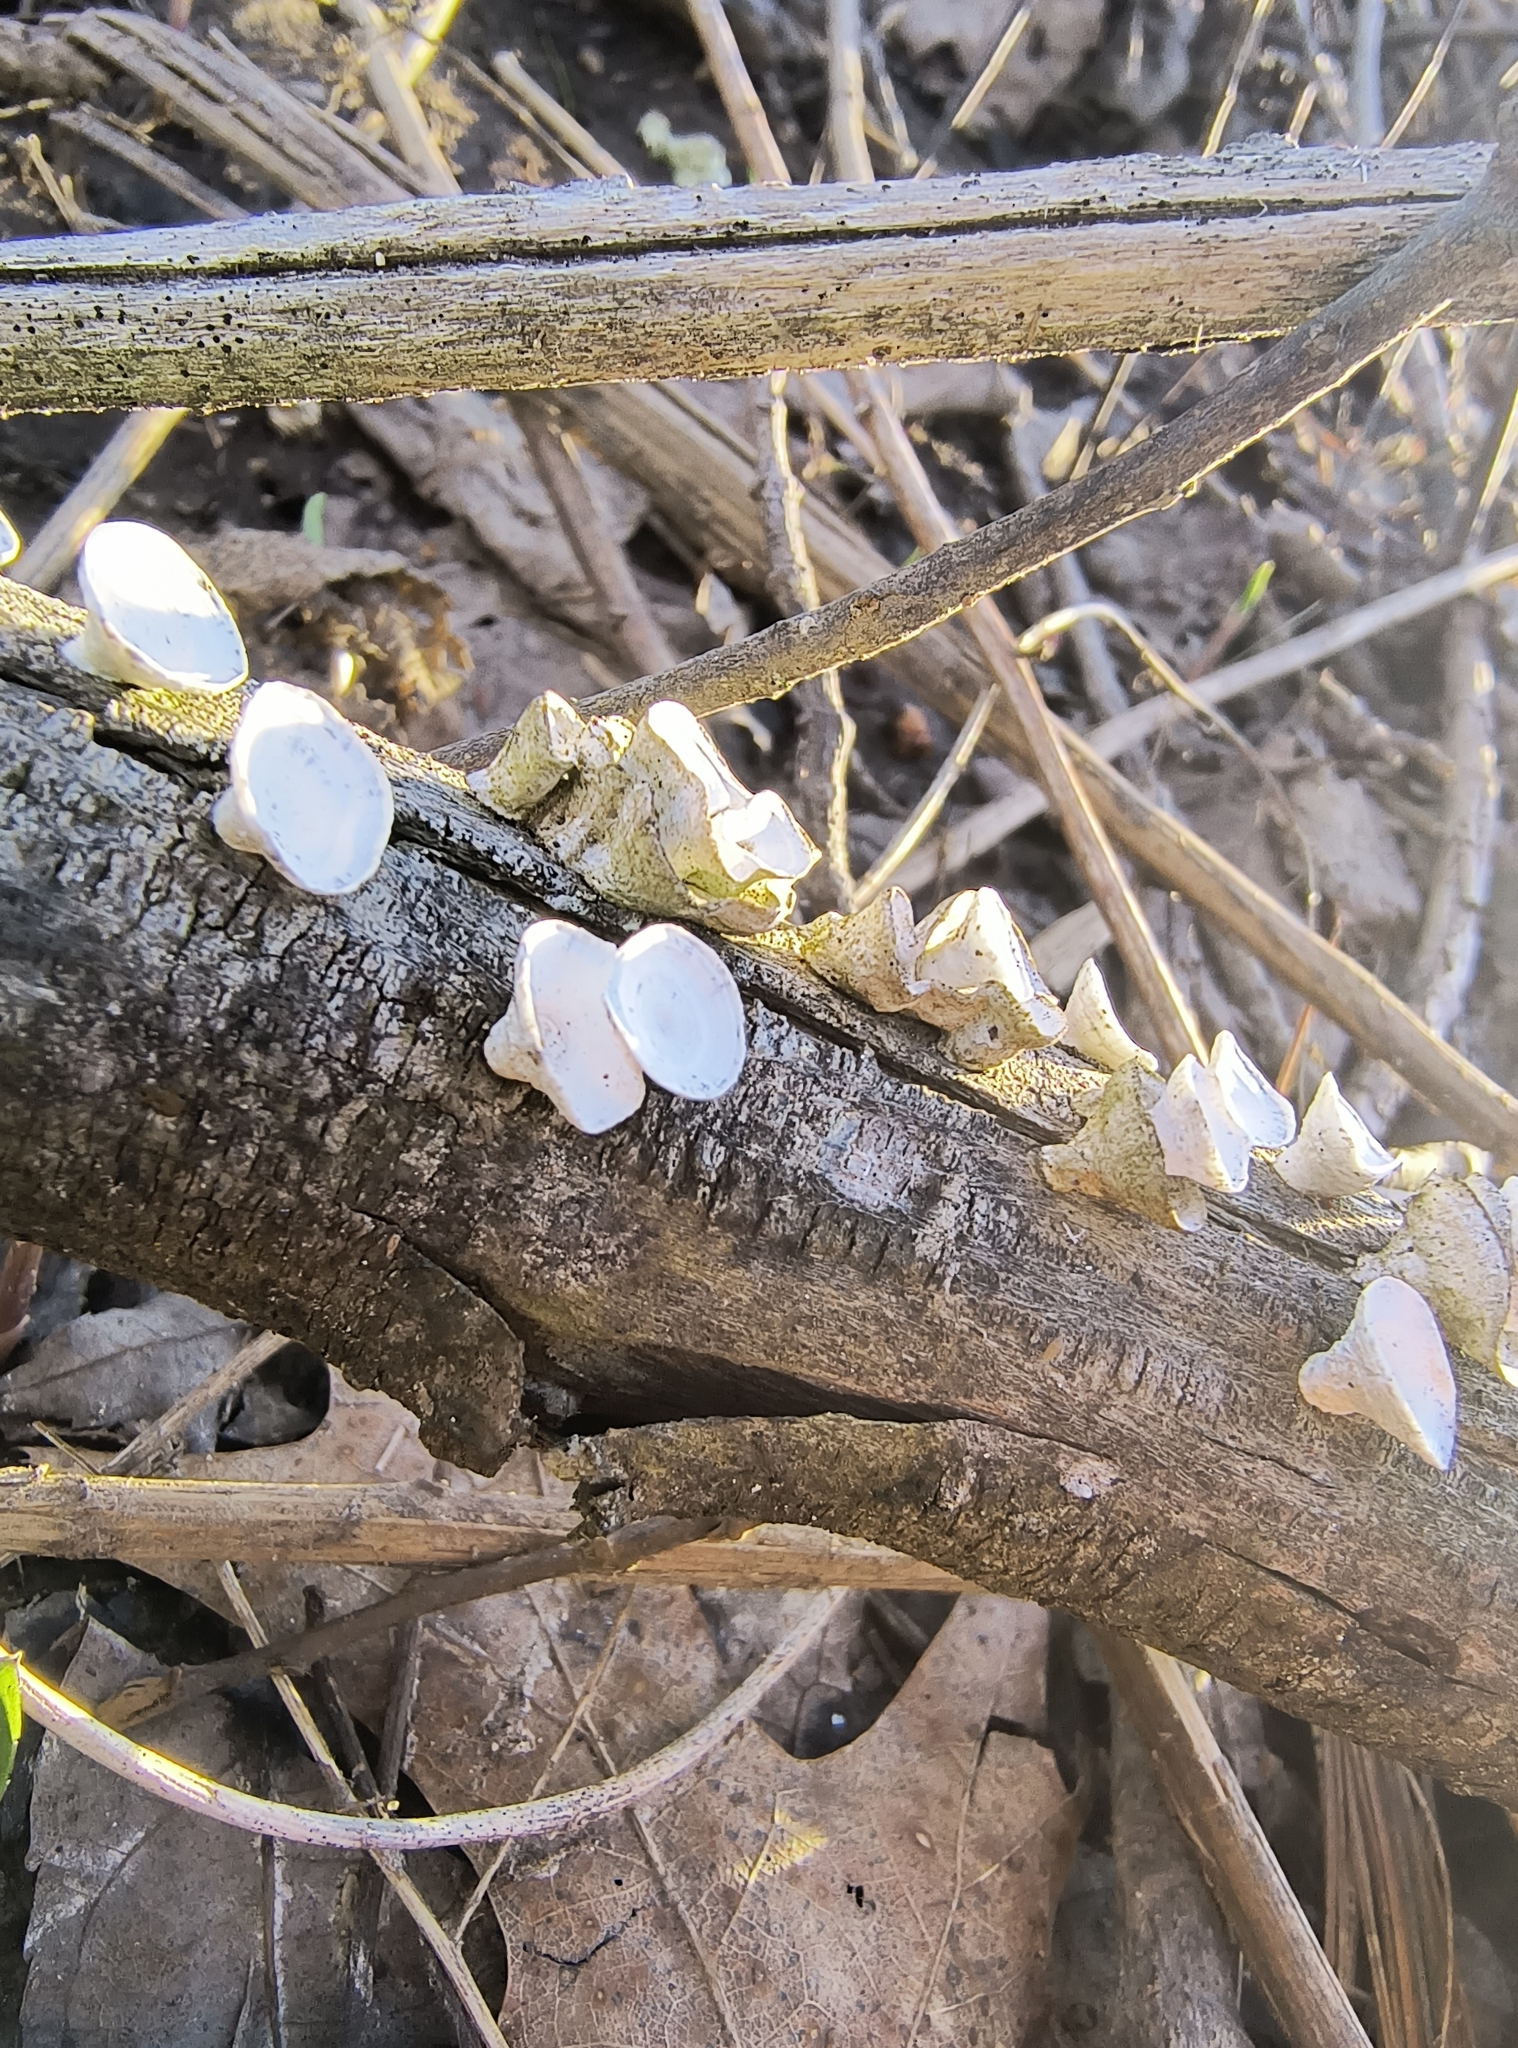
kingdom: Fungi
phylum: Basidiomycota
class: Agaricomycetes
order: Polyporales
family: Polyporaceae
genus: Poronidulus
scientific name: Poronidulus conchifer
